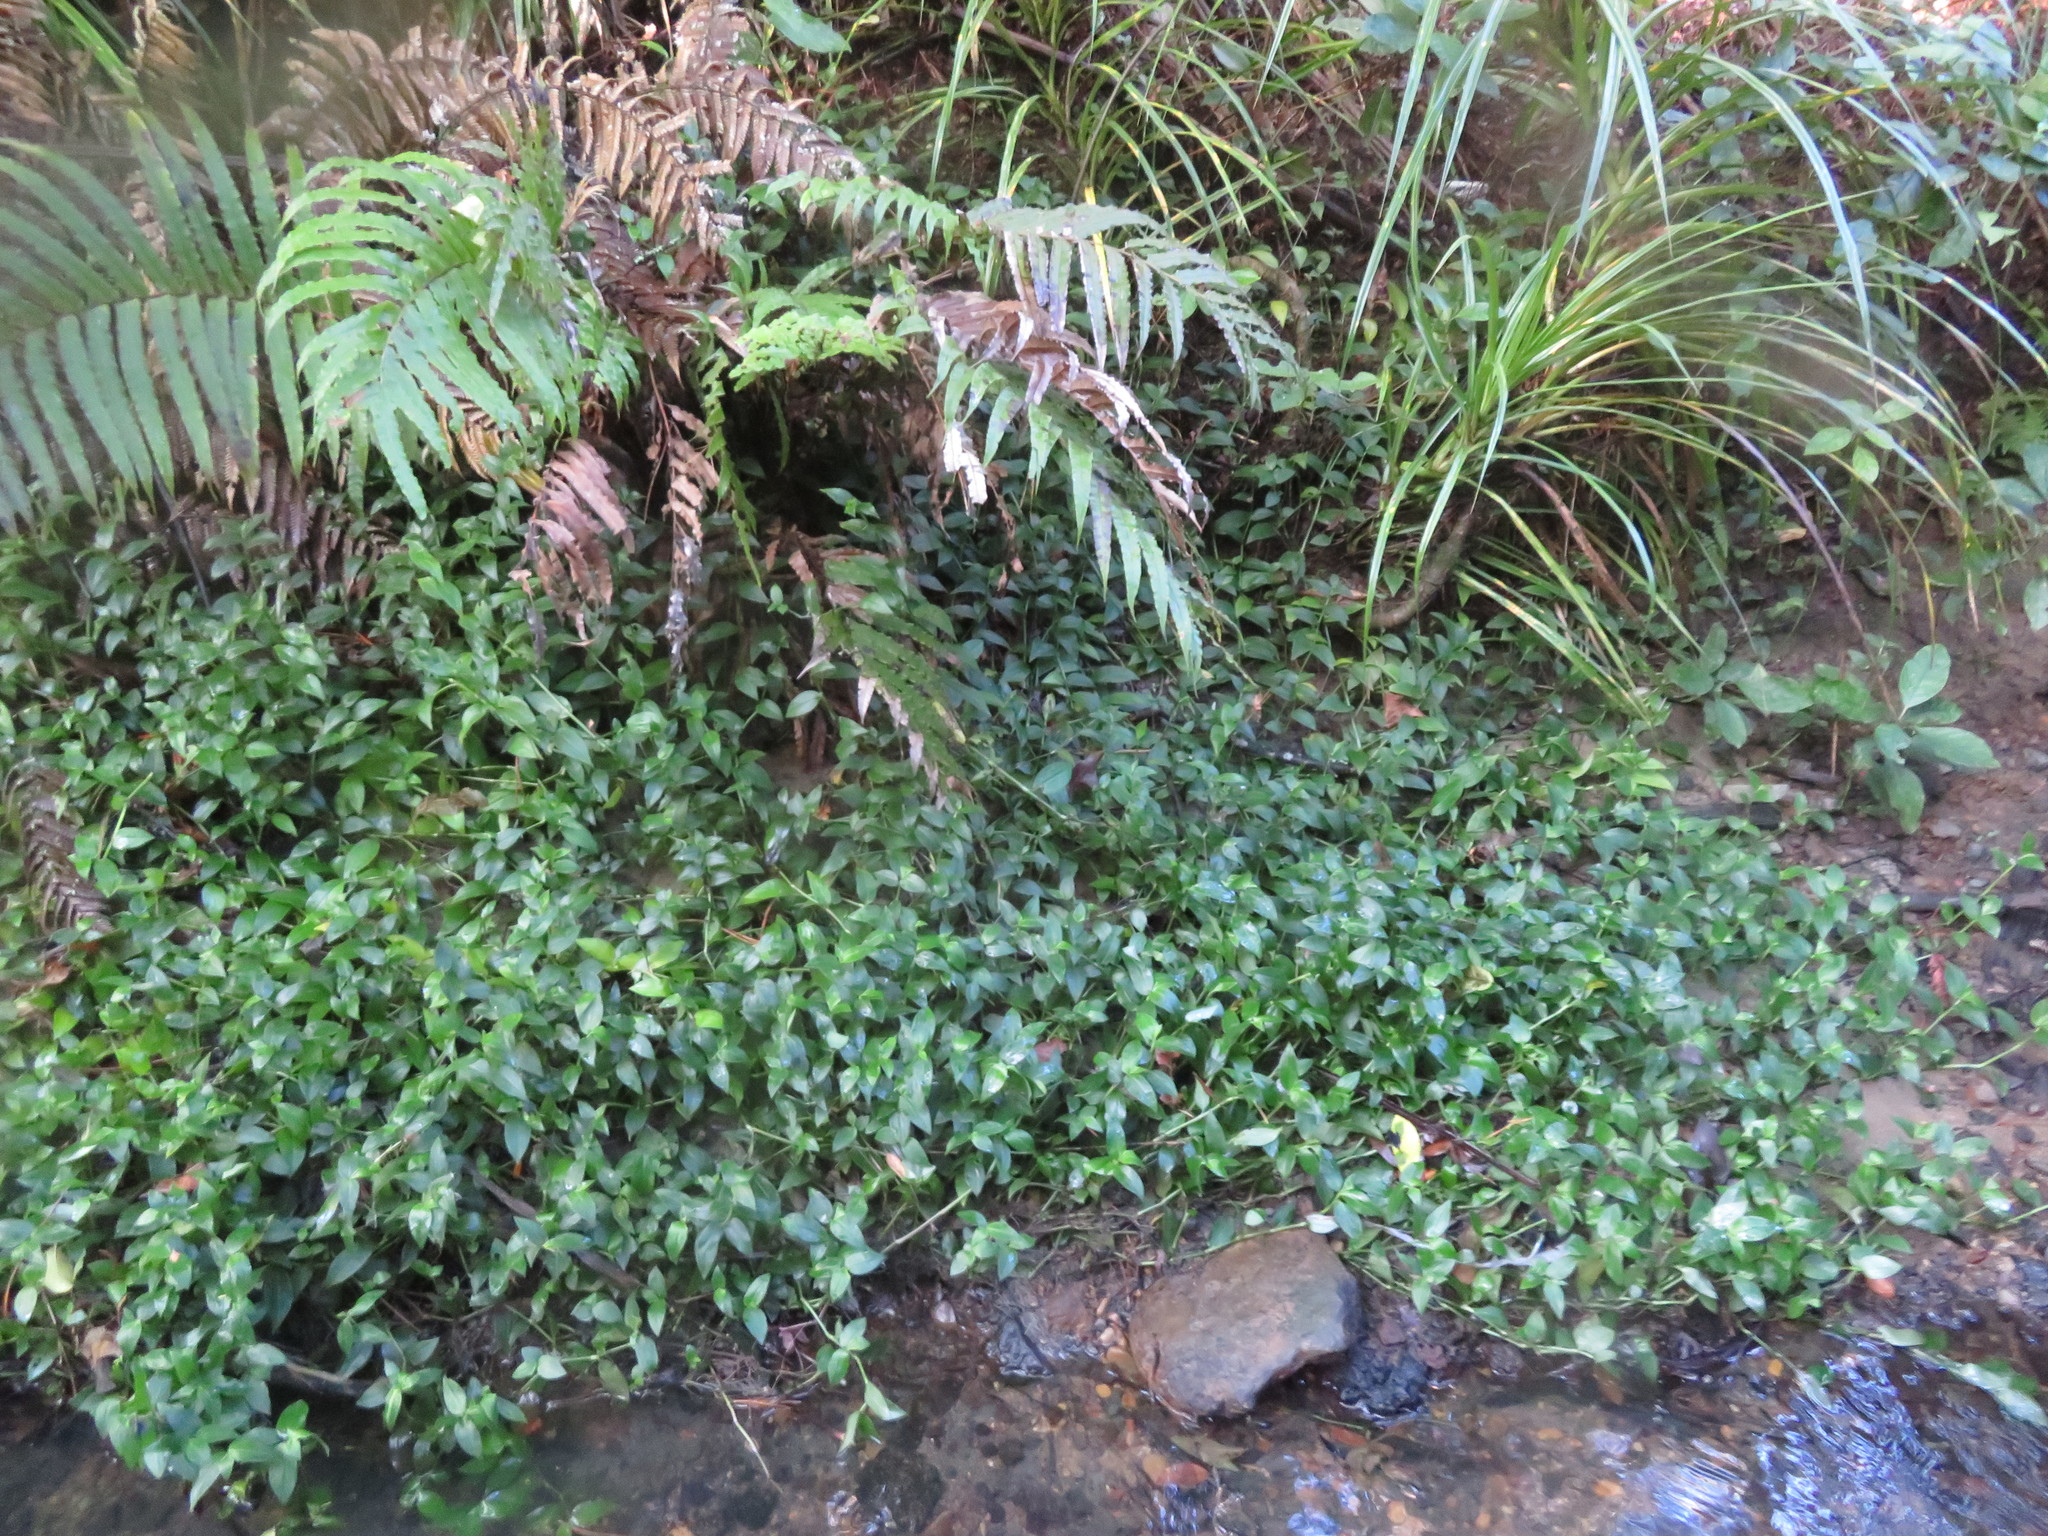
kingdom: Plantae
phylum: Tracheophyta
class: Liliopsida
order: Commelinales
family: Commelinaceae
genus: Tradescantia
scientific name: Tradescantia fluminensis
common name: Wandering-jew
